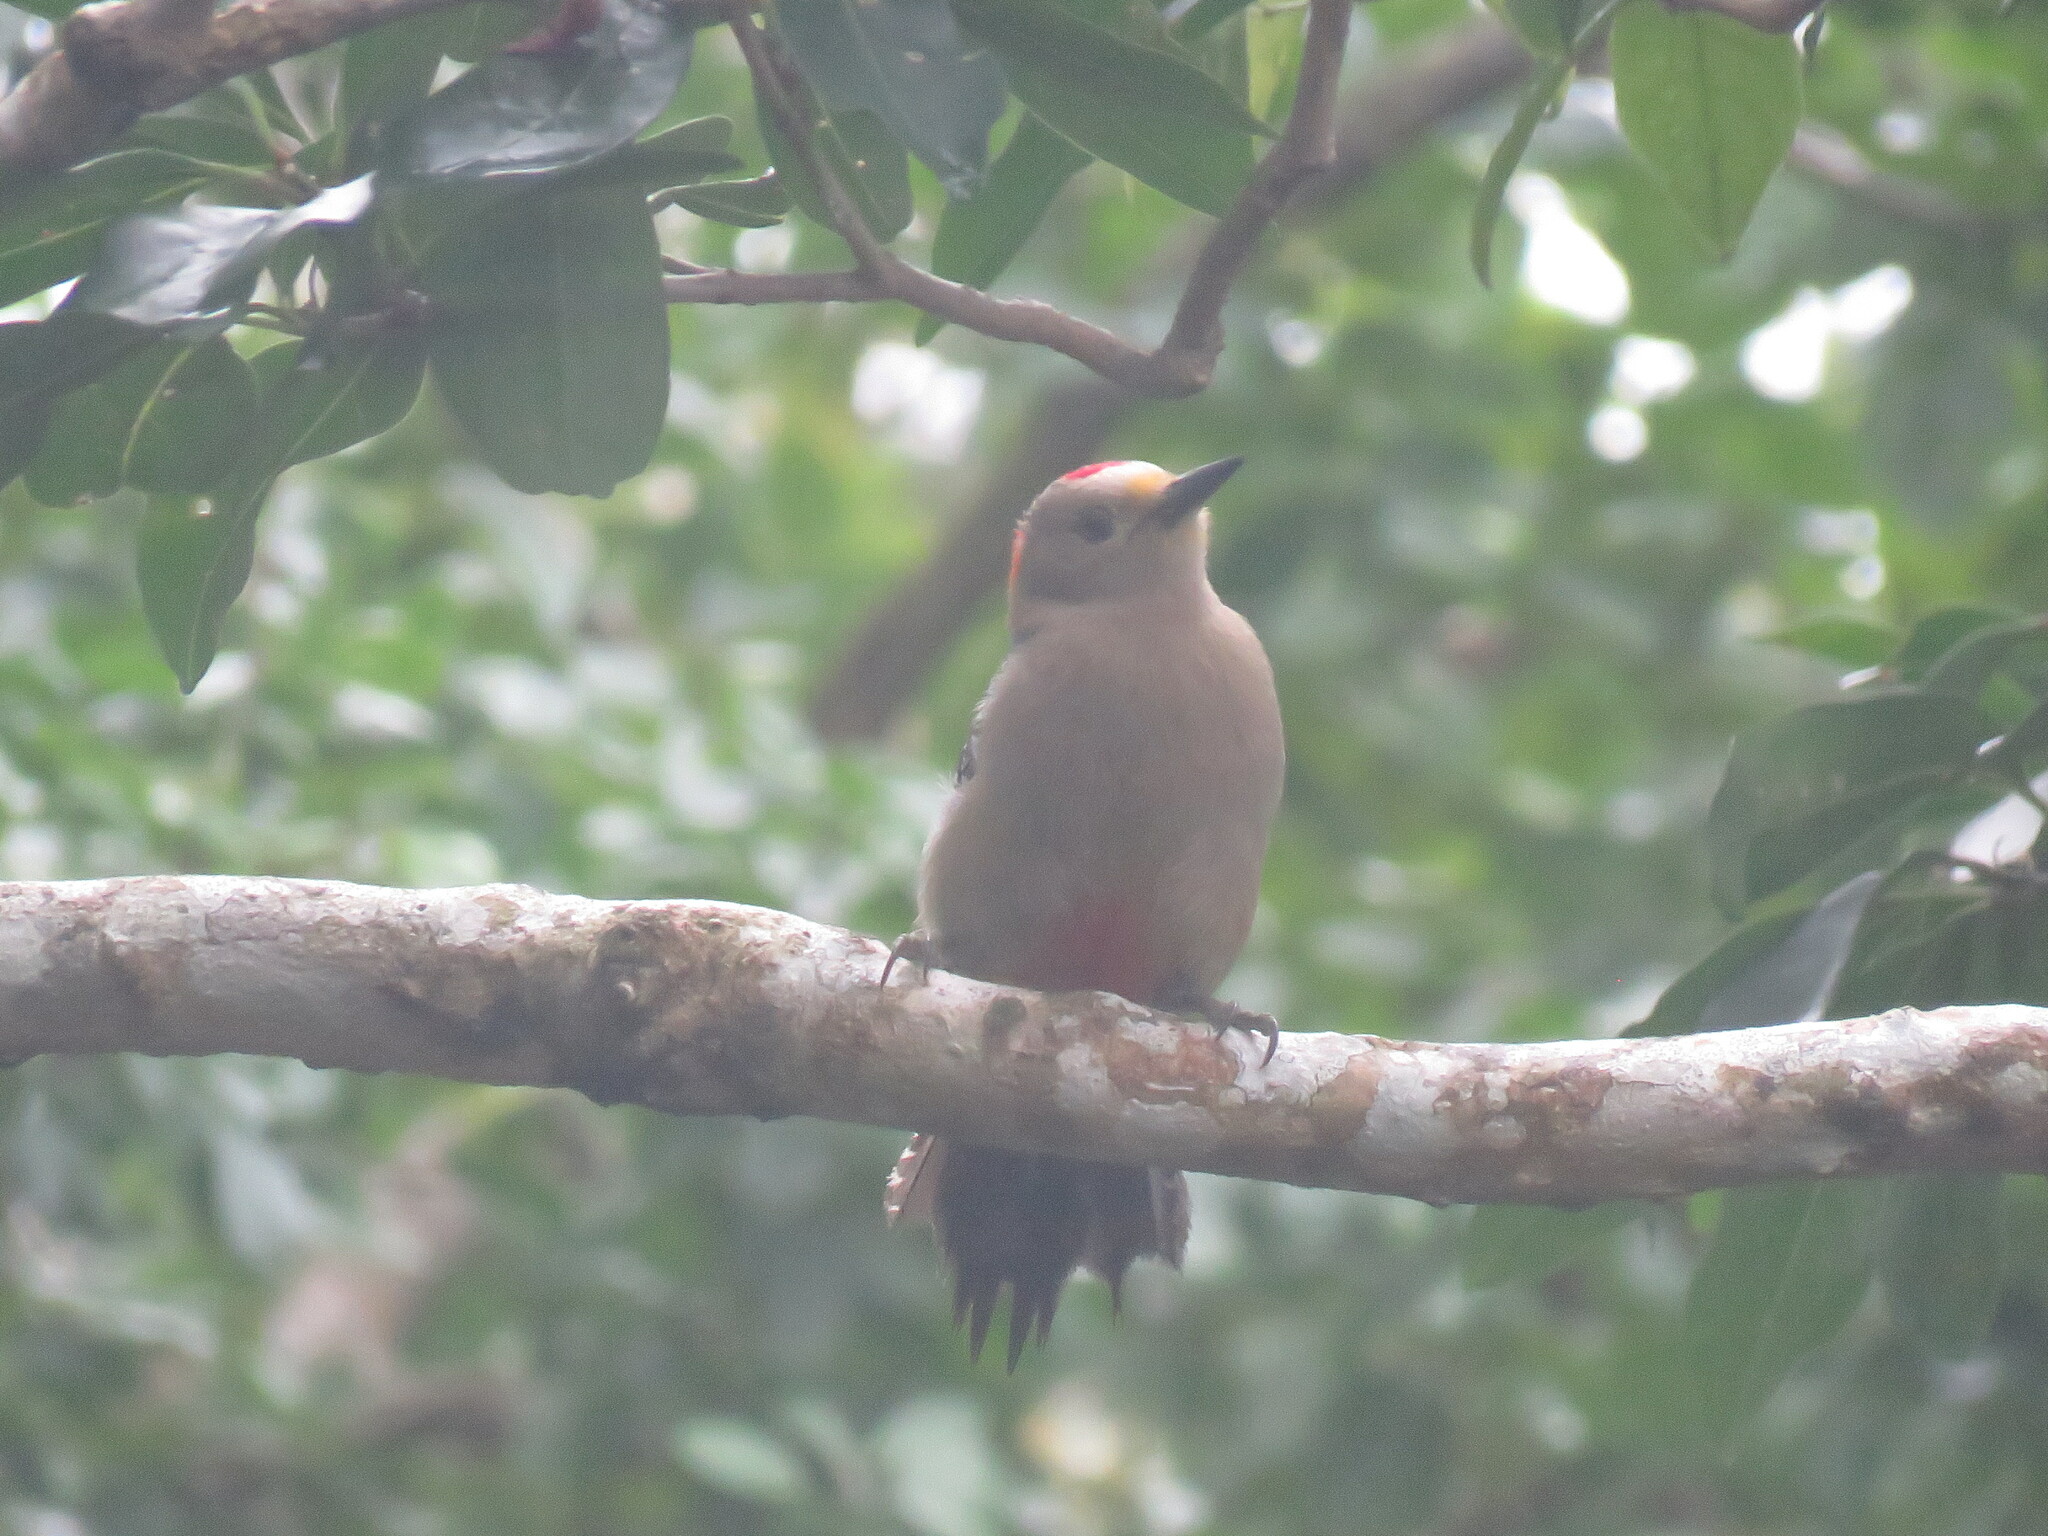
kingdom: Animalia
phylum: Chordata
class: Aves
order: Piciformes
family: Picidae
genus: Melanerpes
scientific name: Melanerpes pygmaeus
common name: Yucatan woodpecker
